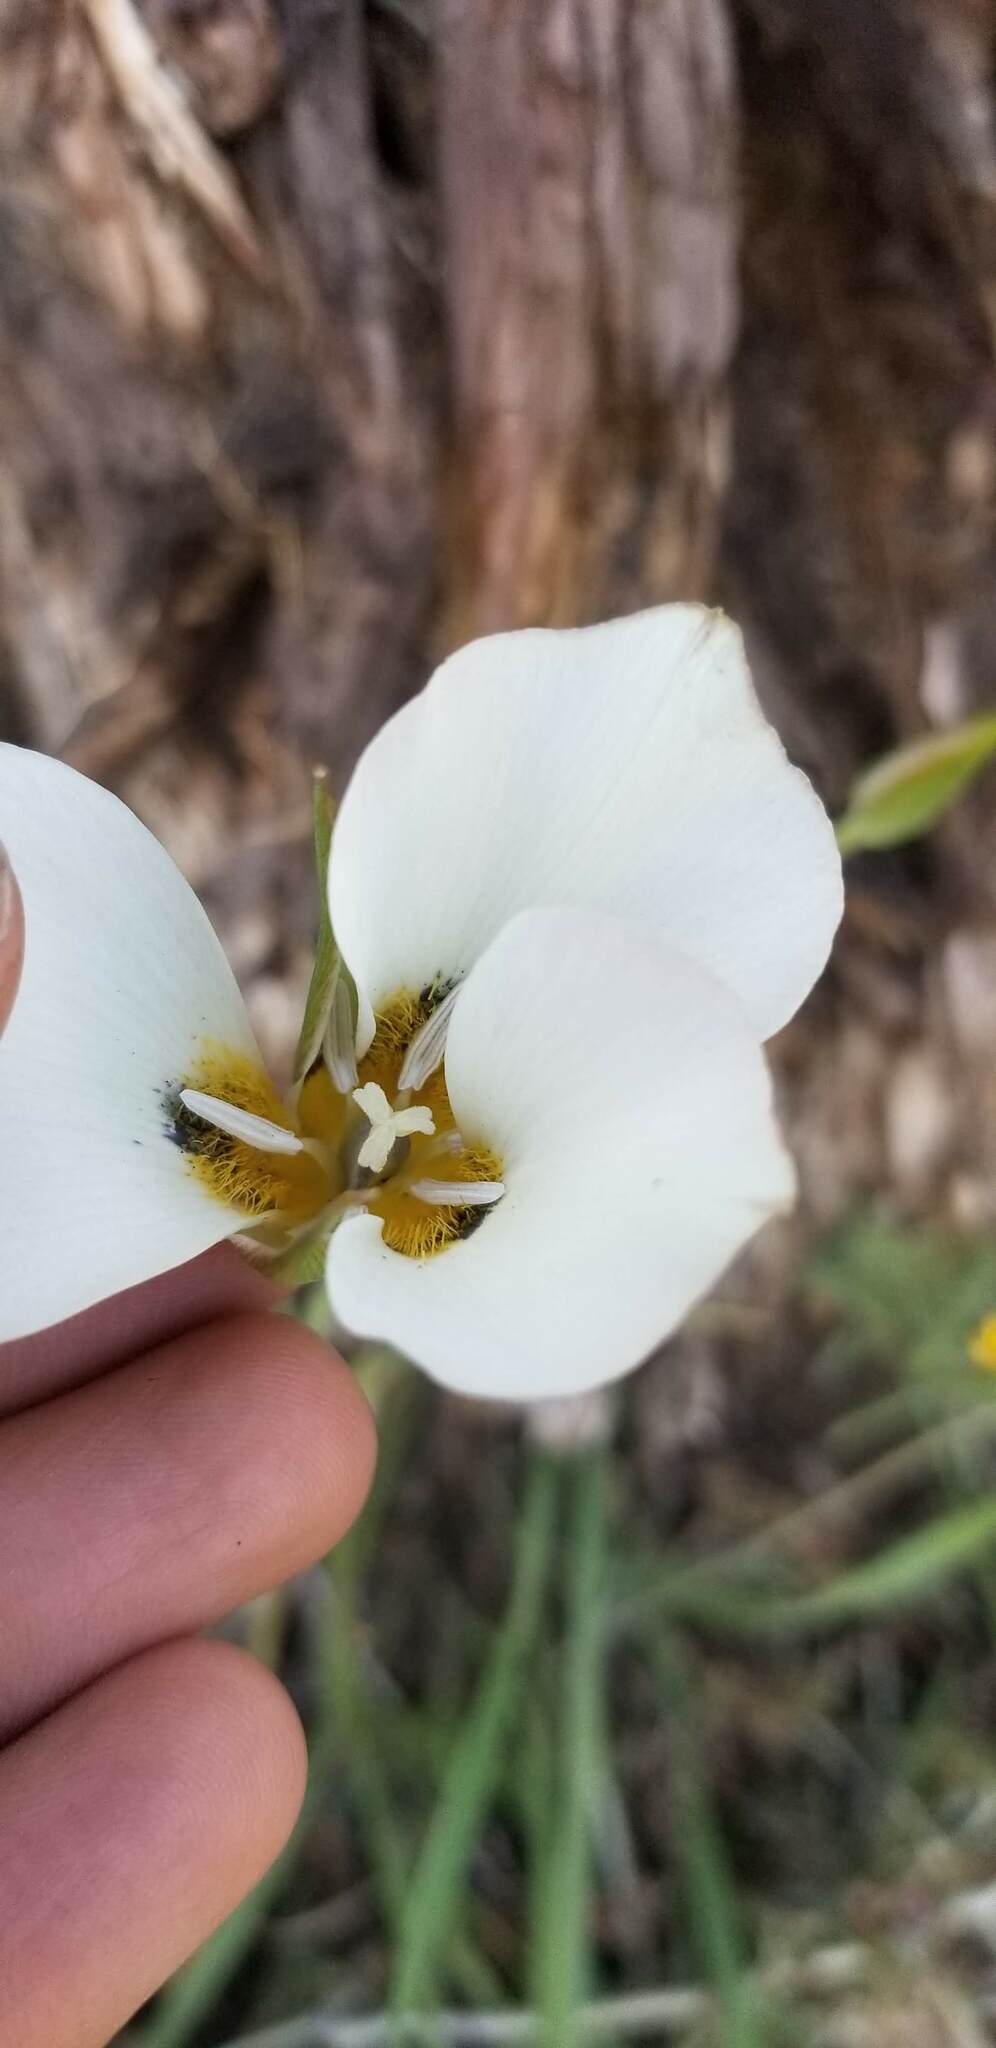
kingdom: Plantae
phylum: Tracheophyta
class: Liliopsida
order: Liliales
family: Liliaceae
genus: Calochortus
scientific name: Calochortus leichtlinii
